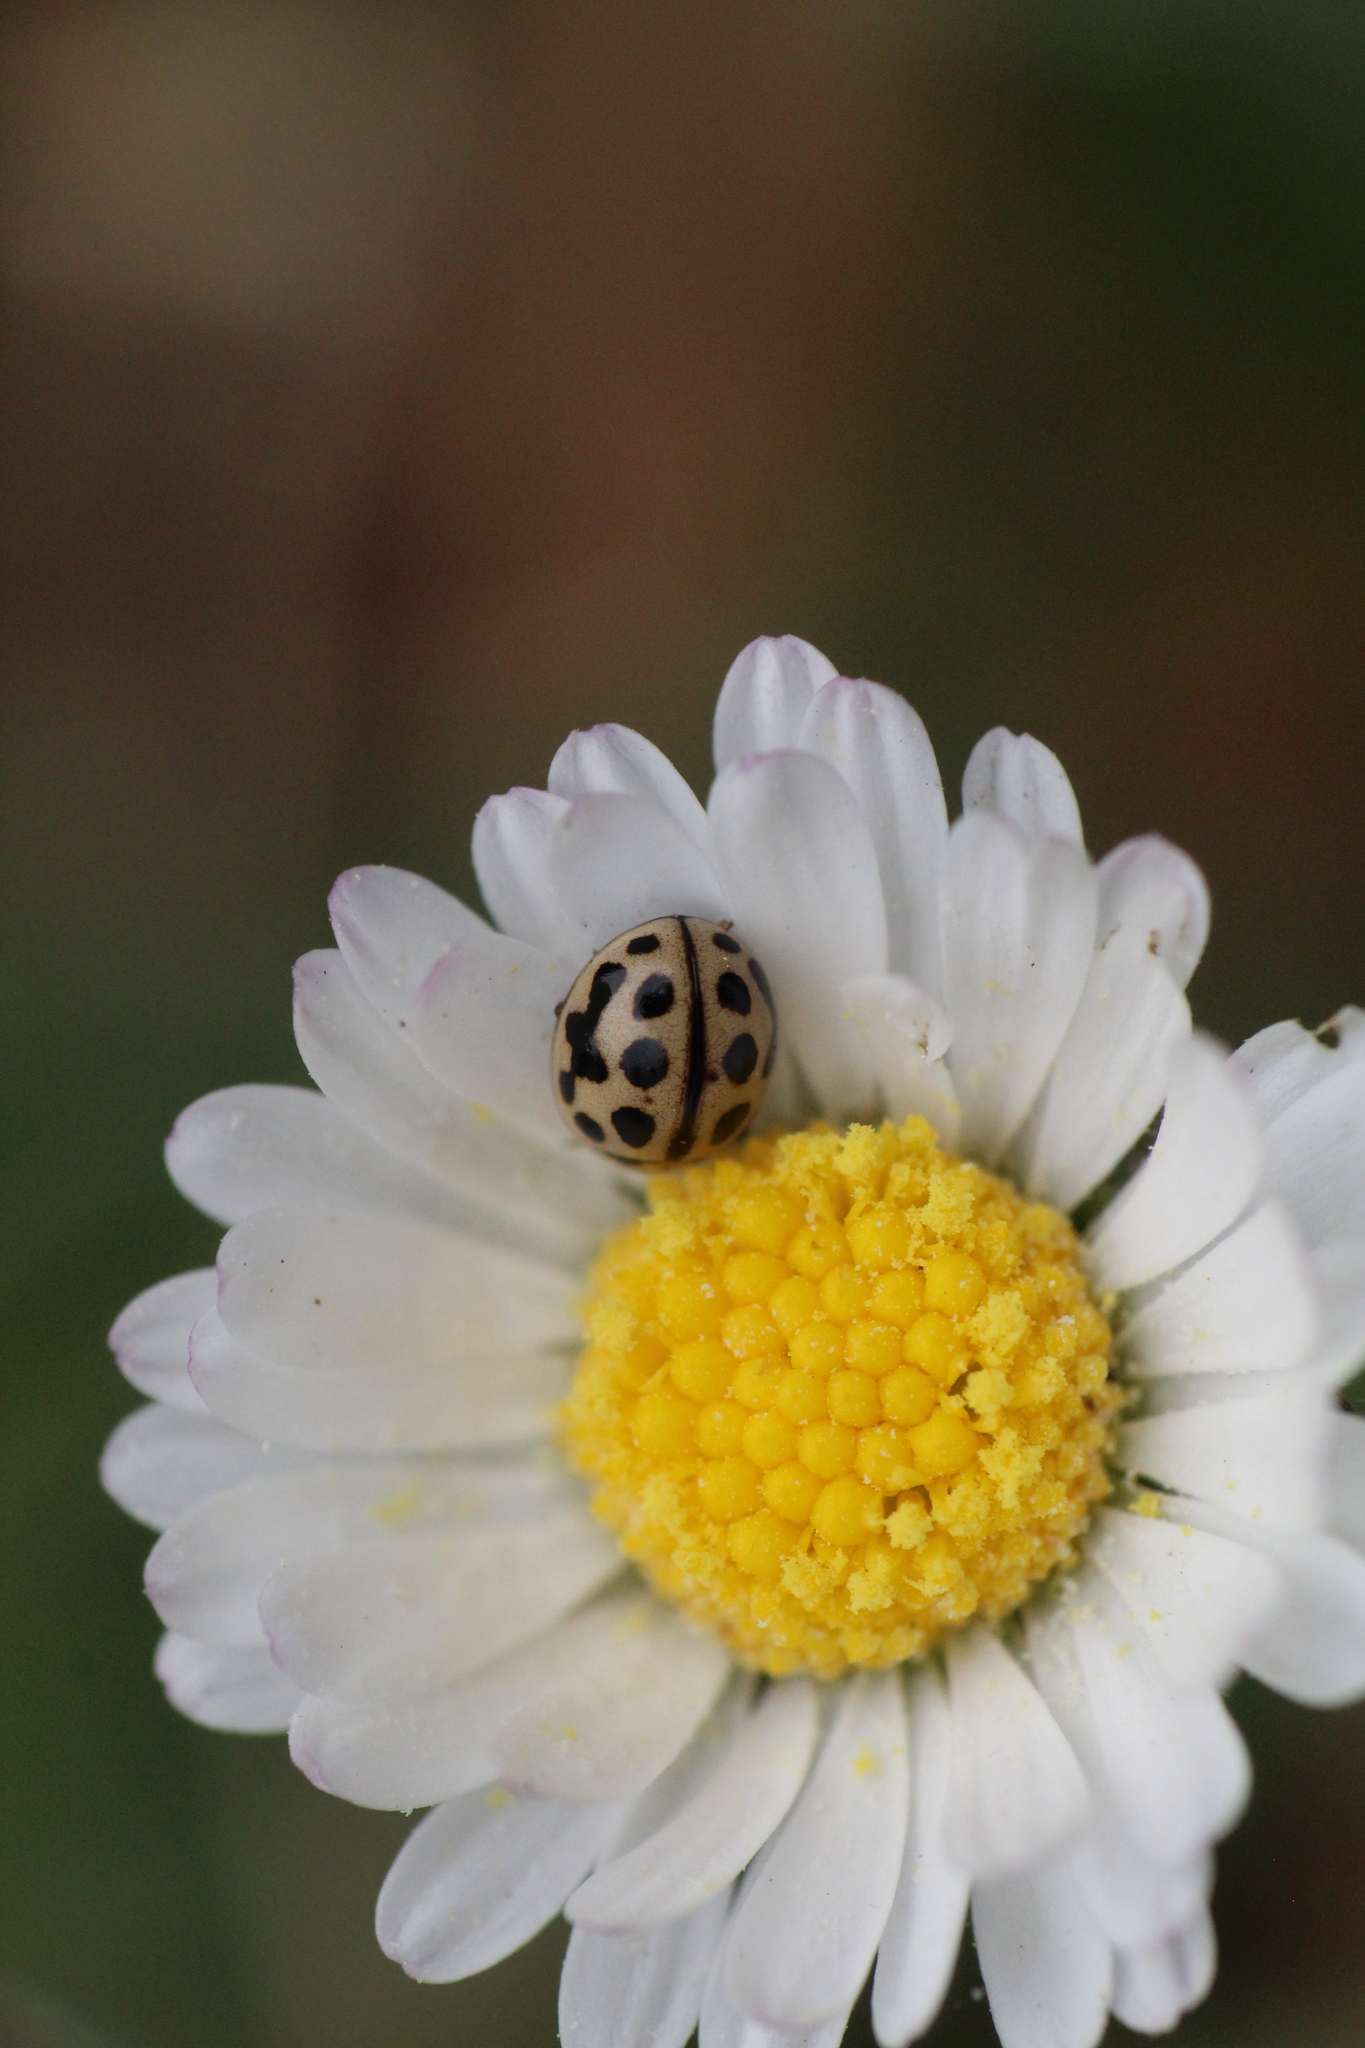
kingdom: Animalia
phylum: Arthropoda
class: Insecta
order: Coleoptera
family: Coccinellidae
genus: Tytthaspis
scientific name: Tytthaspis sedecimpunctata
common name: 16-spot ladybird
